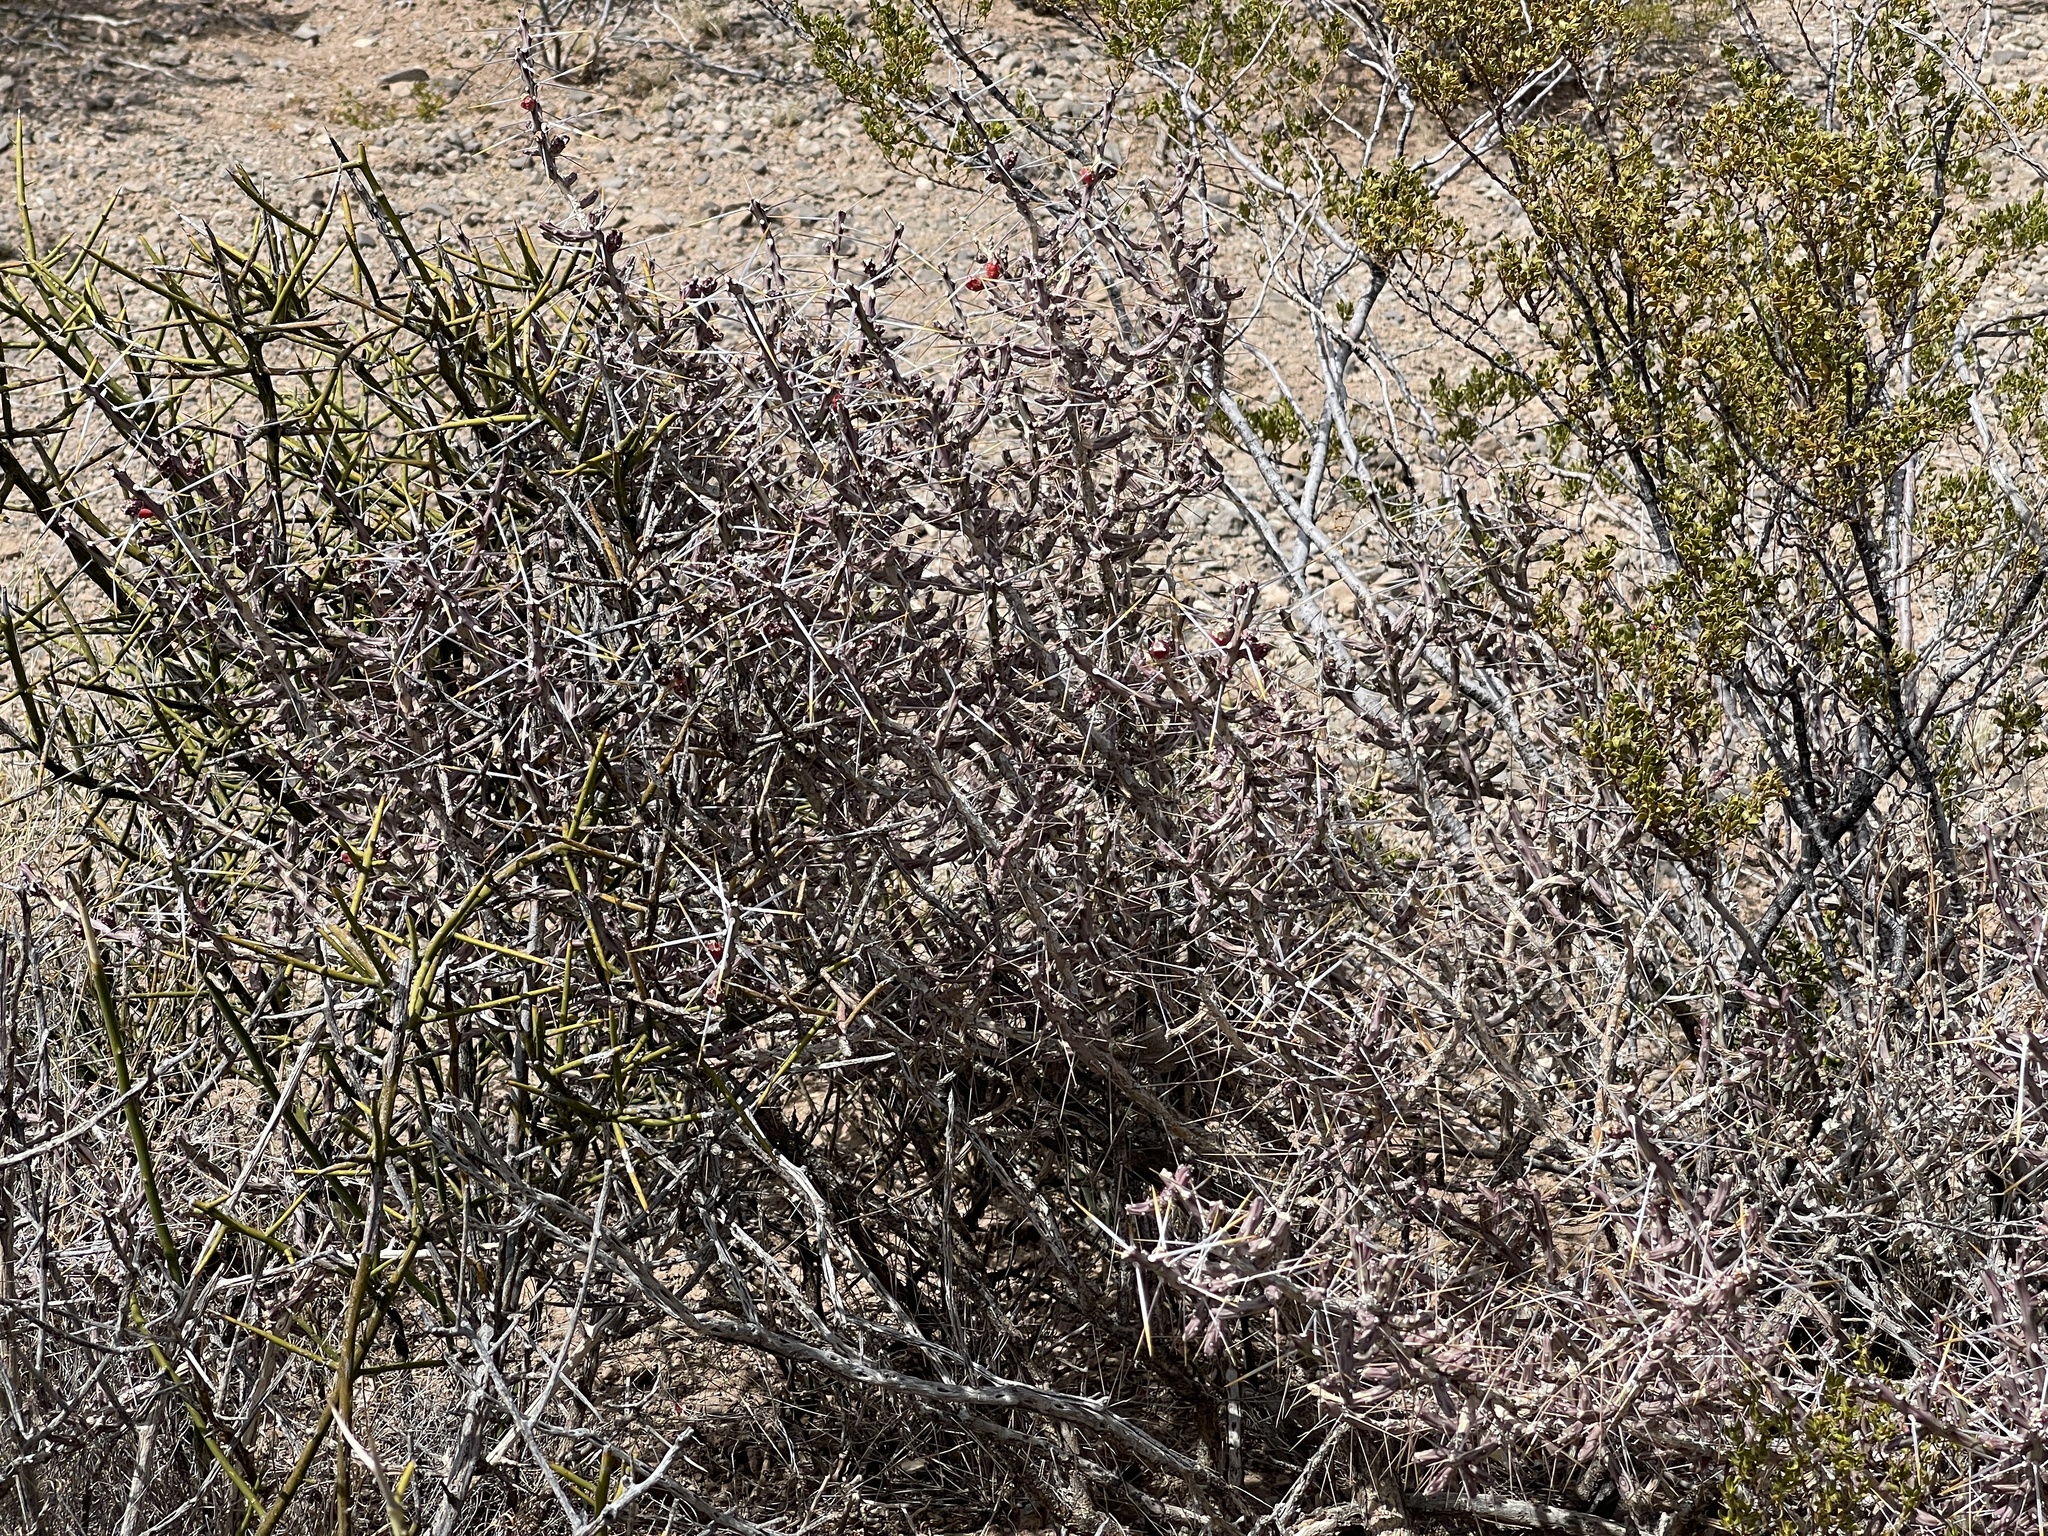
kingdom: Plantae
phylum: Tracheophyta
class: Magnoliopsida
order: Caryophyllales
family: Cactaceae
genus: Cylindropuntia
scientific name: Cylindropuntia leptocaulis
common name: Christmas cactus
